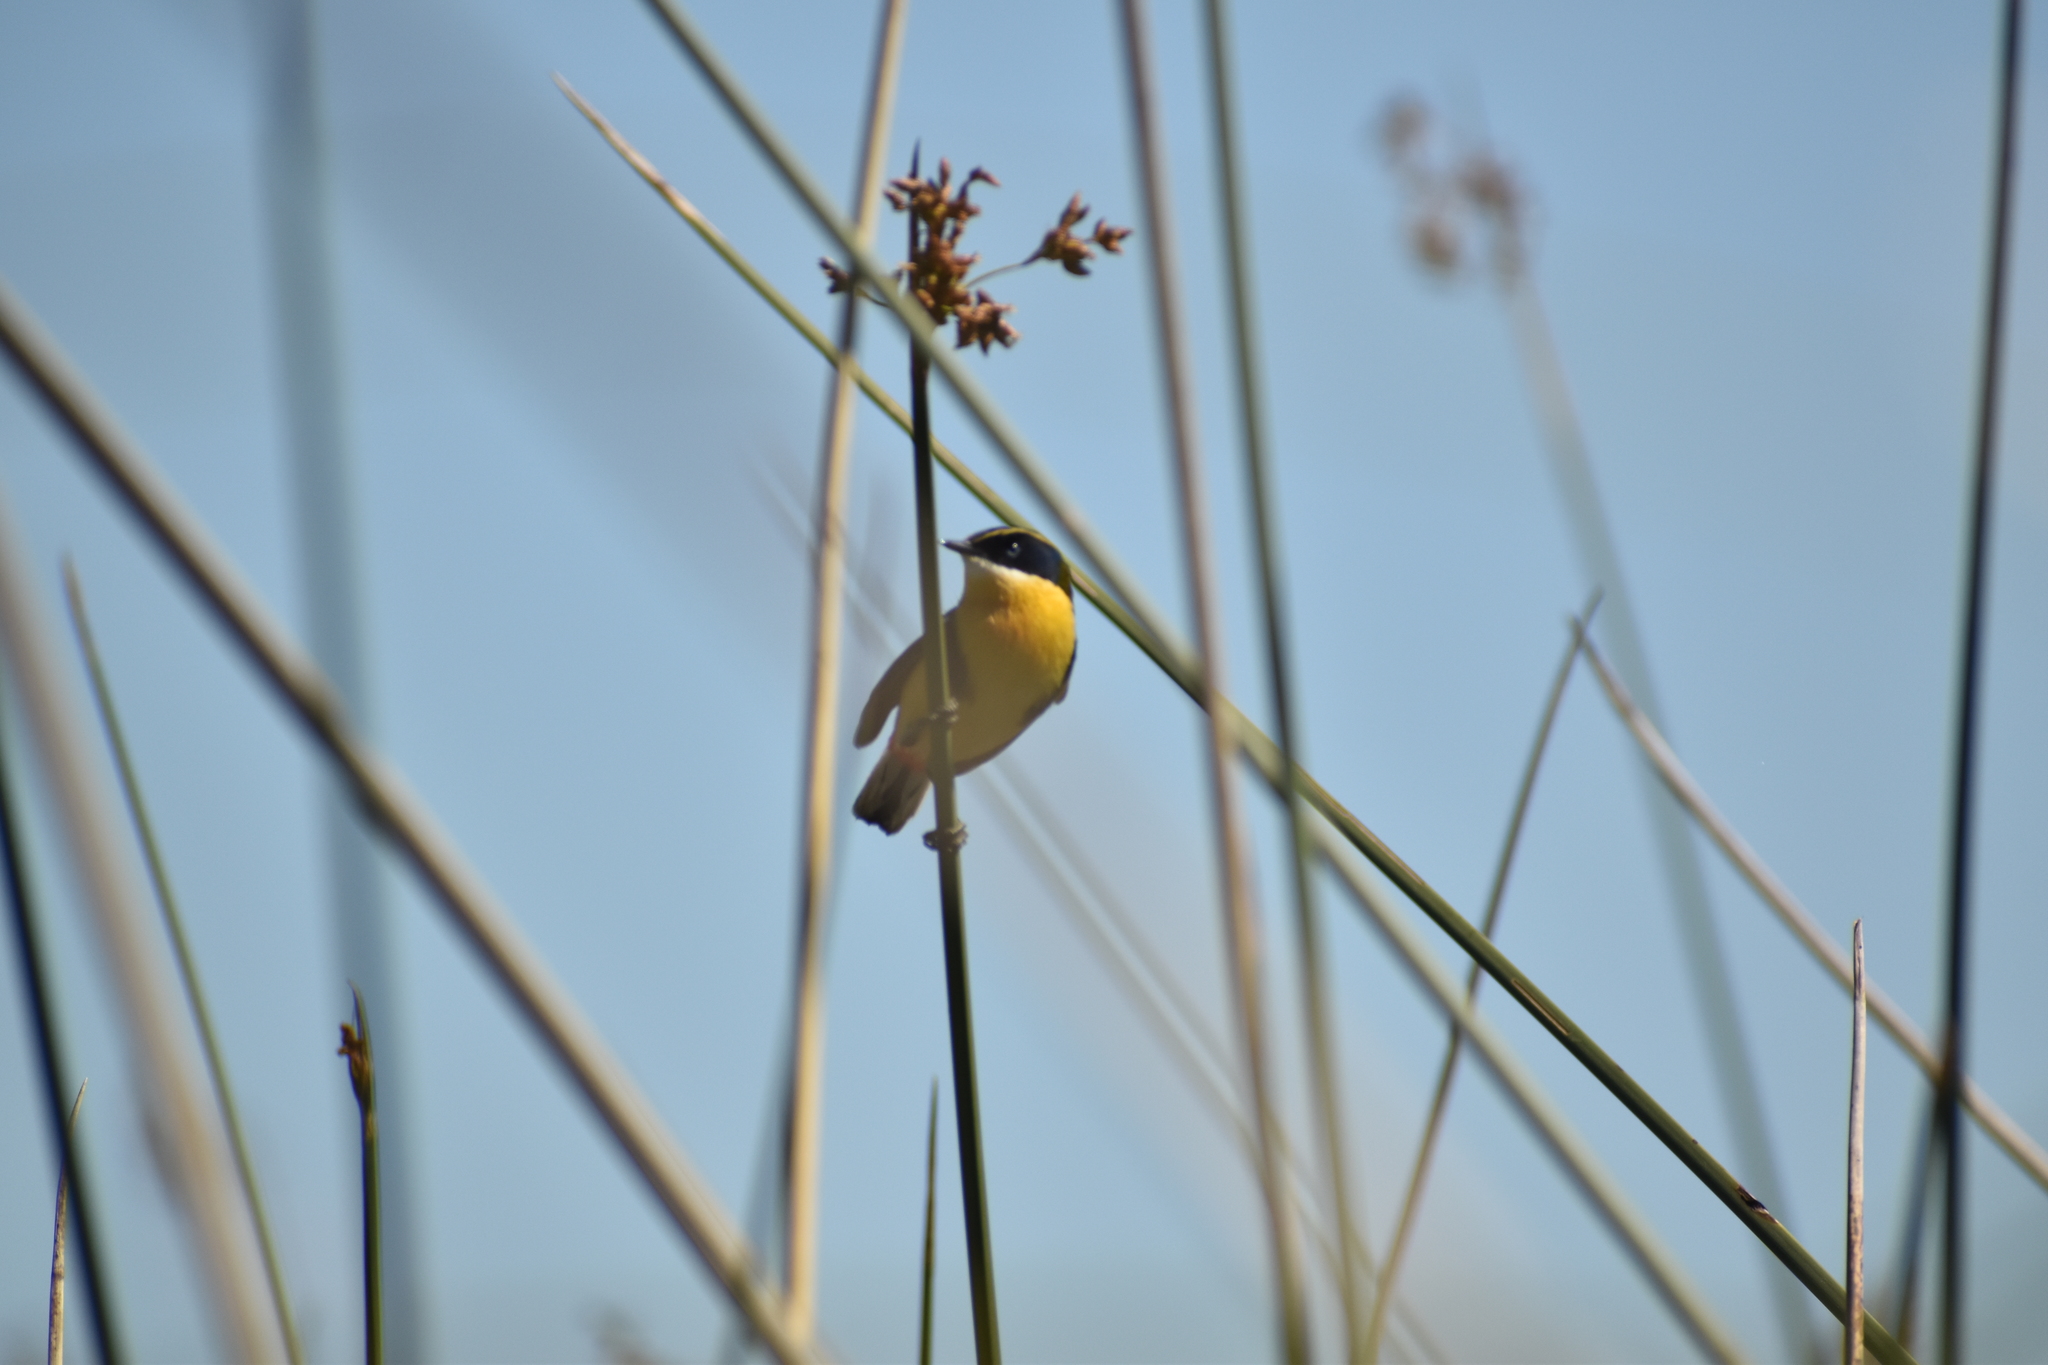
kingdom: Animalia
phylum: Chordata
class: Aves
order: Passeriformes
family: Tyrannidae
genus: Tachuris
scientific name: Tachuris rubrigastra
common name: Many-colored rush tyrant
